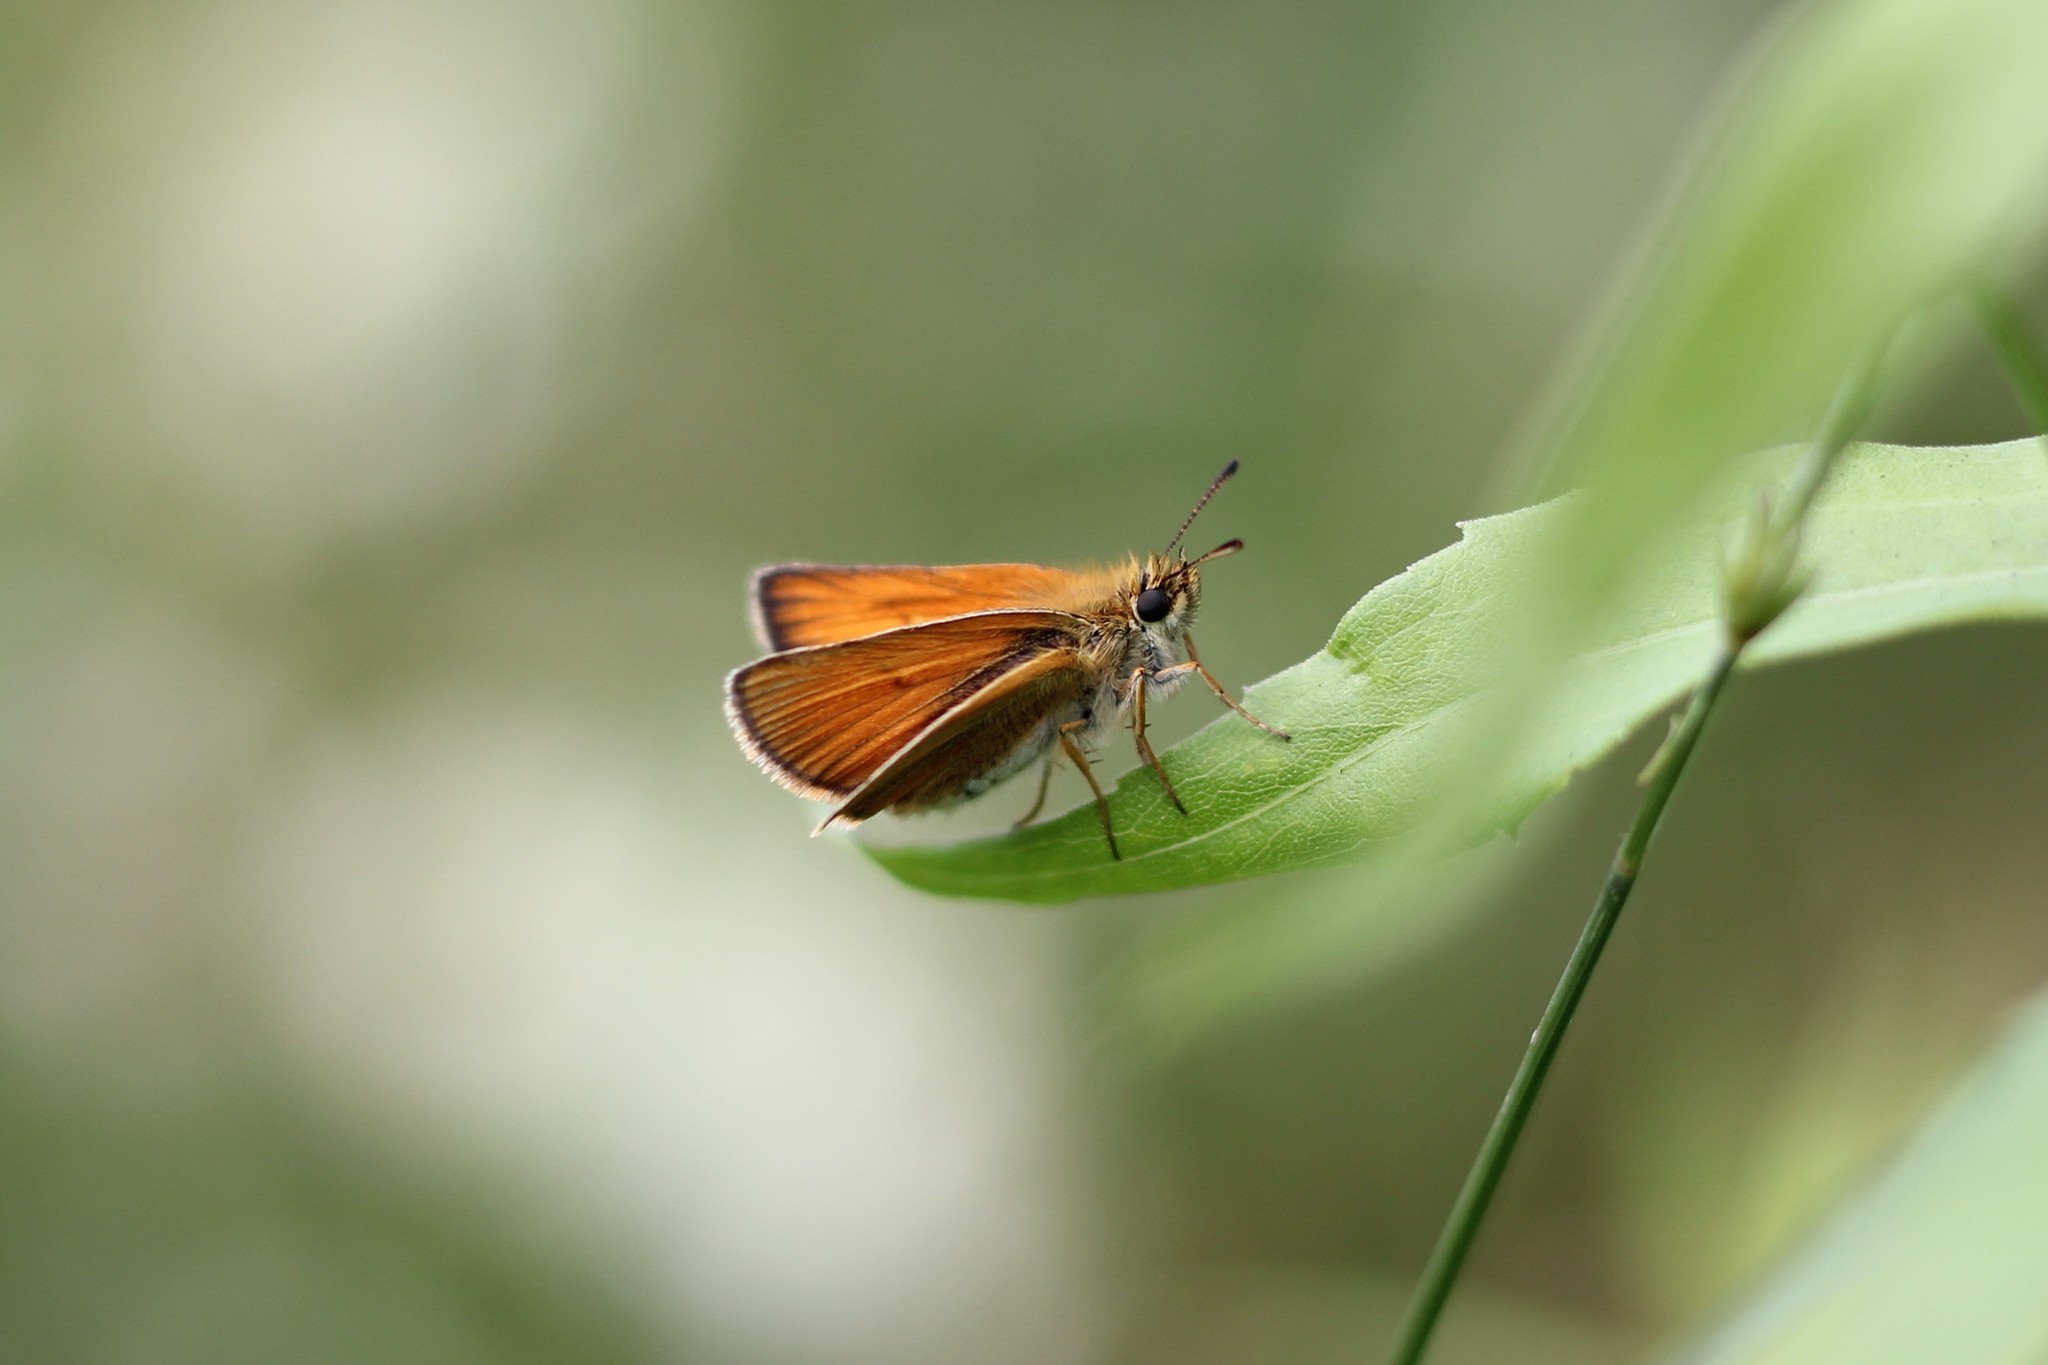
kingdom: Animalia
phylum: Arthropoda
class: Insecta
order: Lepidoptera
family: Hesperiidae
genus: Thymelicus
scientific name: Thymelicus lineola
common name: Essex skipper
